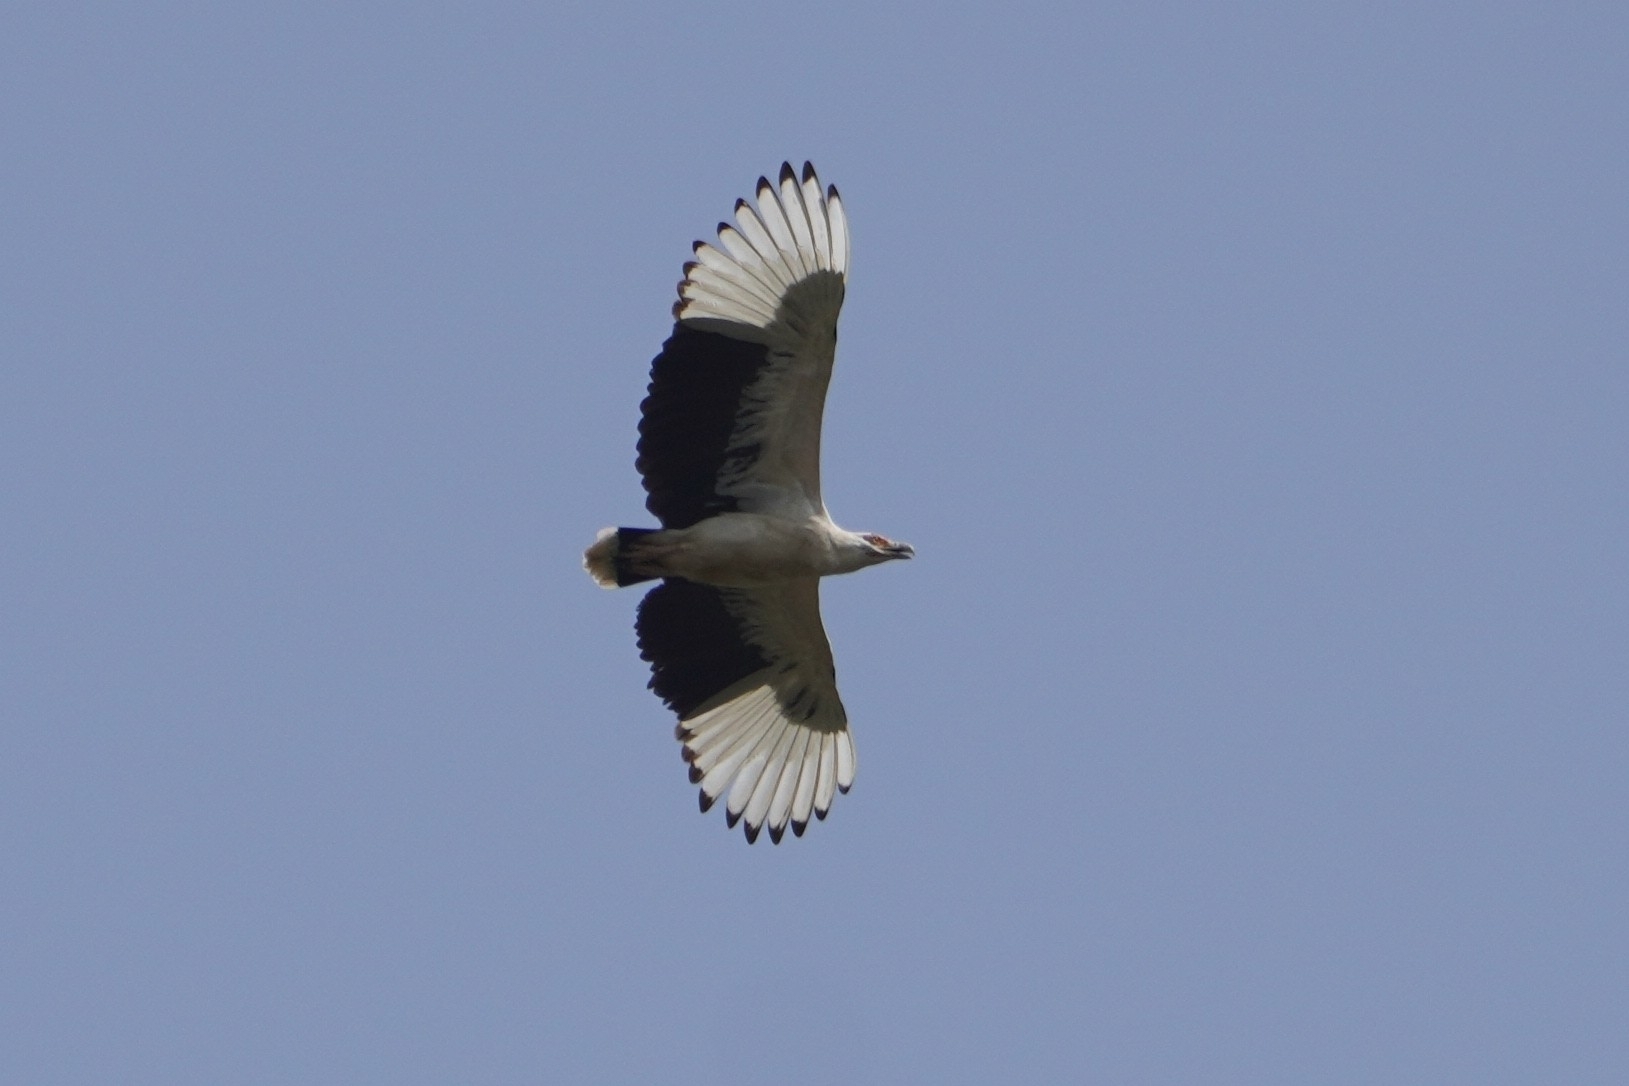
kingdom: Animalia
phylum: Chordata
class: Aves
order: Accipitriformes
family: Accipitridae
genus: Gypohierax
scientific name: Gypohierax angolensis
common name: Palm-nut vulture
